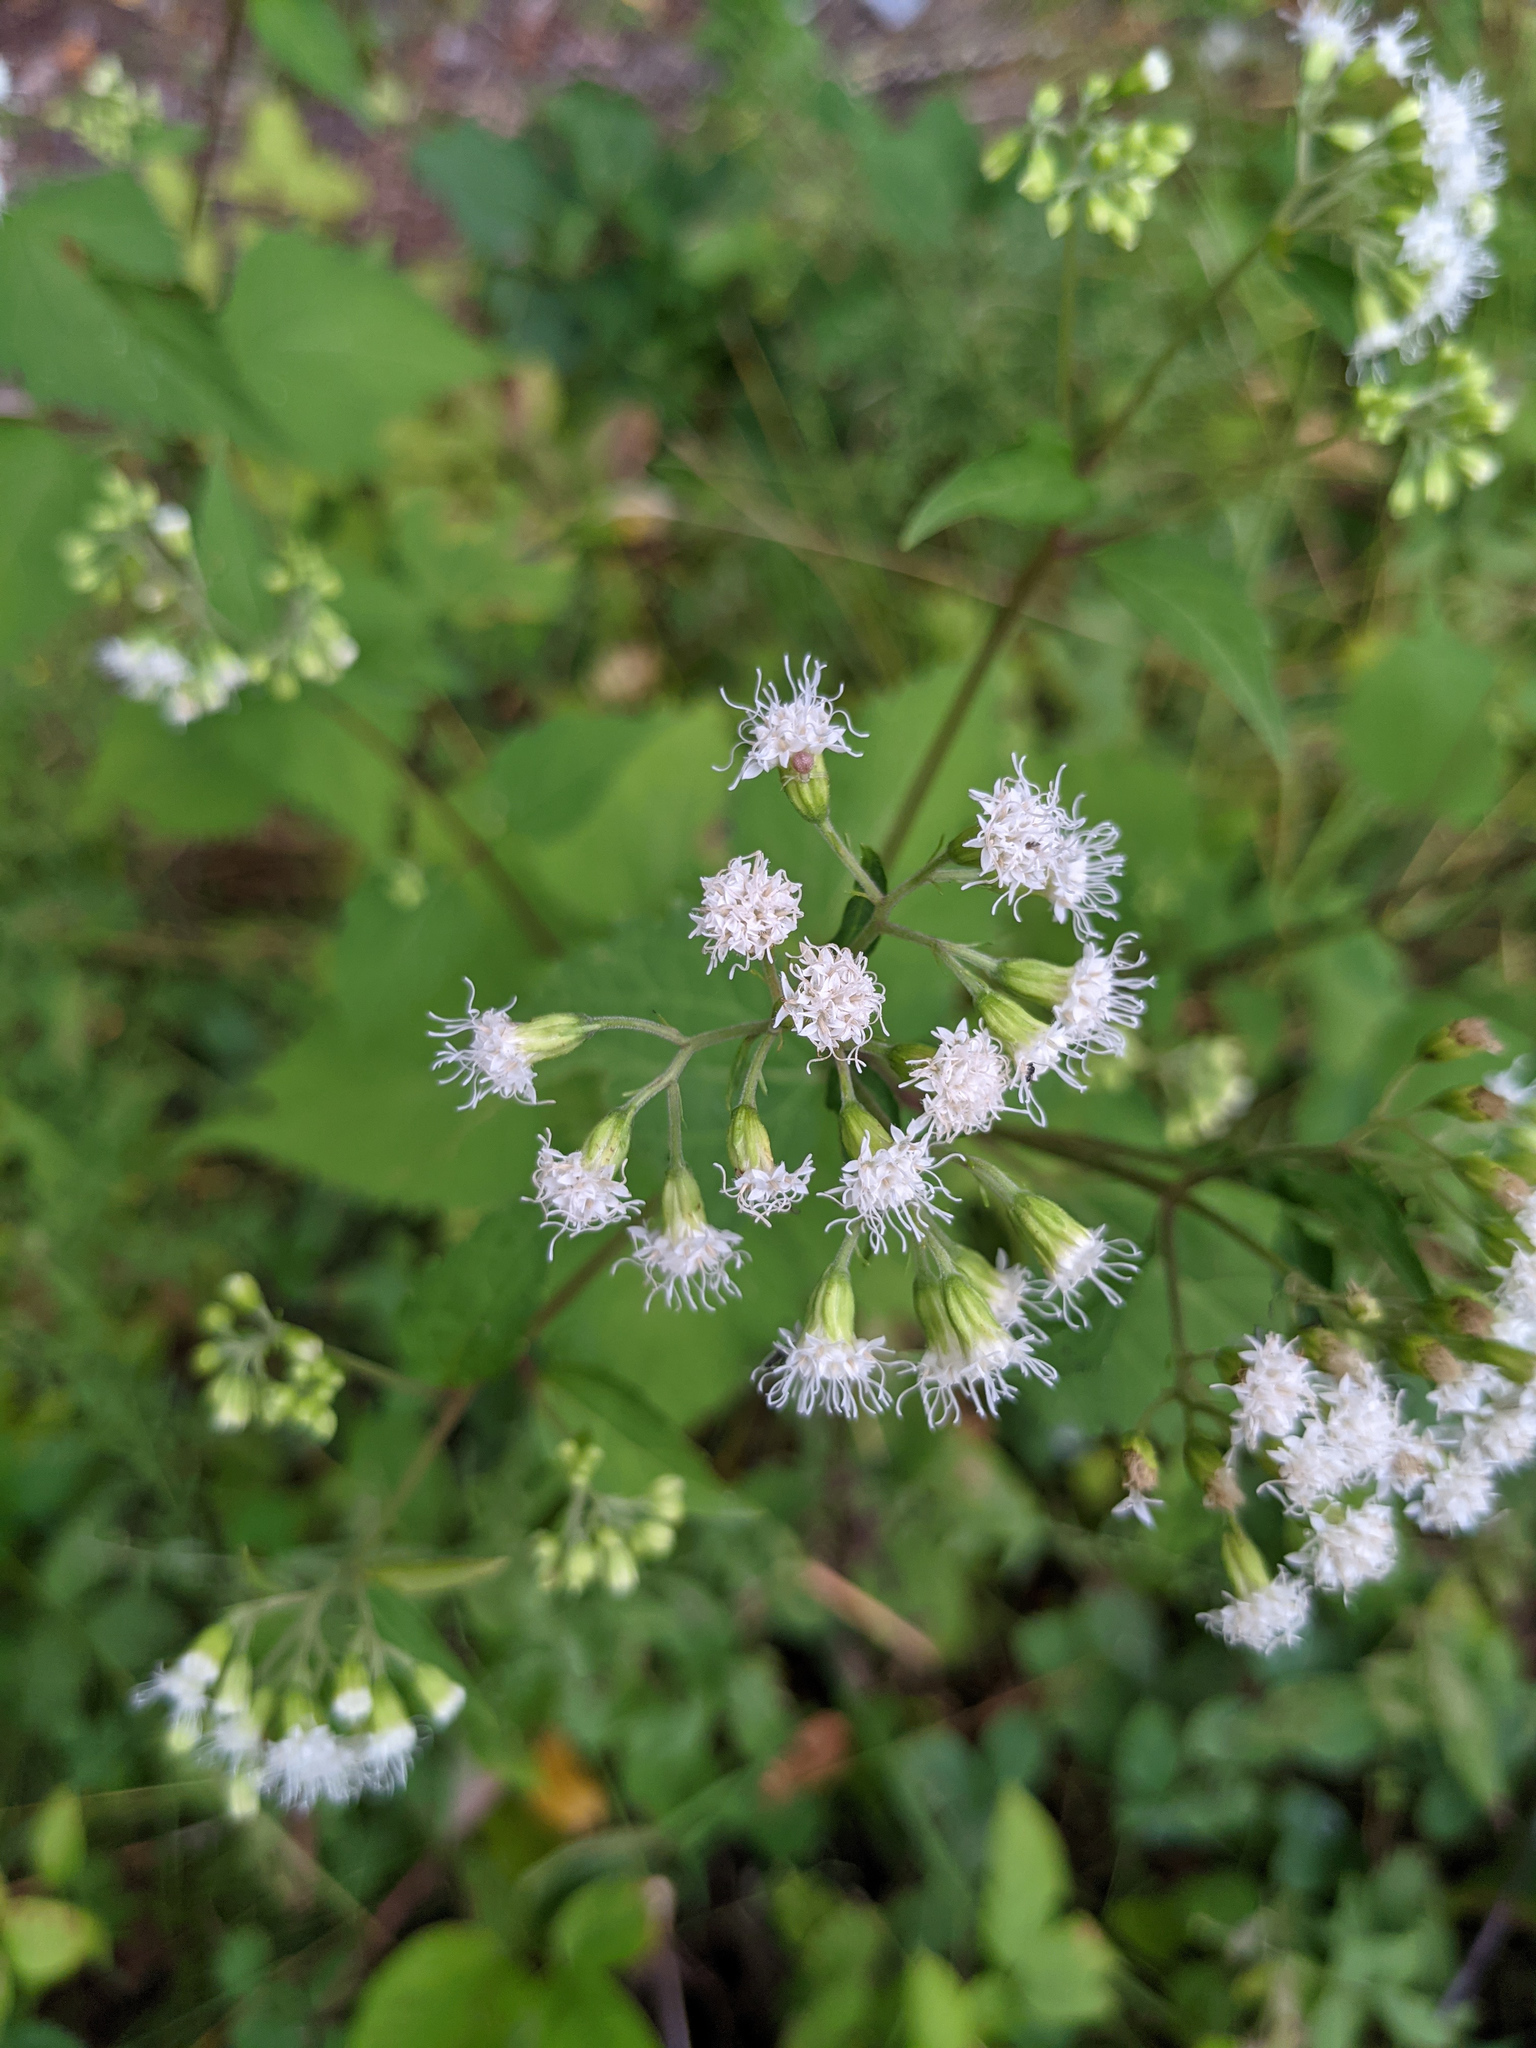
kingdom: Plantae
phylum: Tracheophyta
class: Magnoliopsida
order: Asterales
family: Asteraceae
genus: Ageratina
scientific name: Ageratina altissima
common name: White snakeroot
